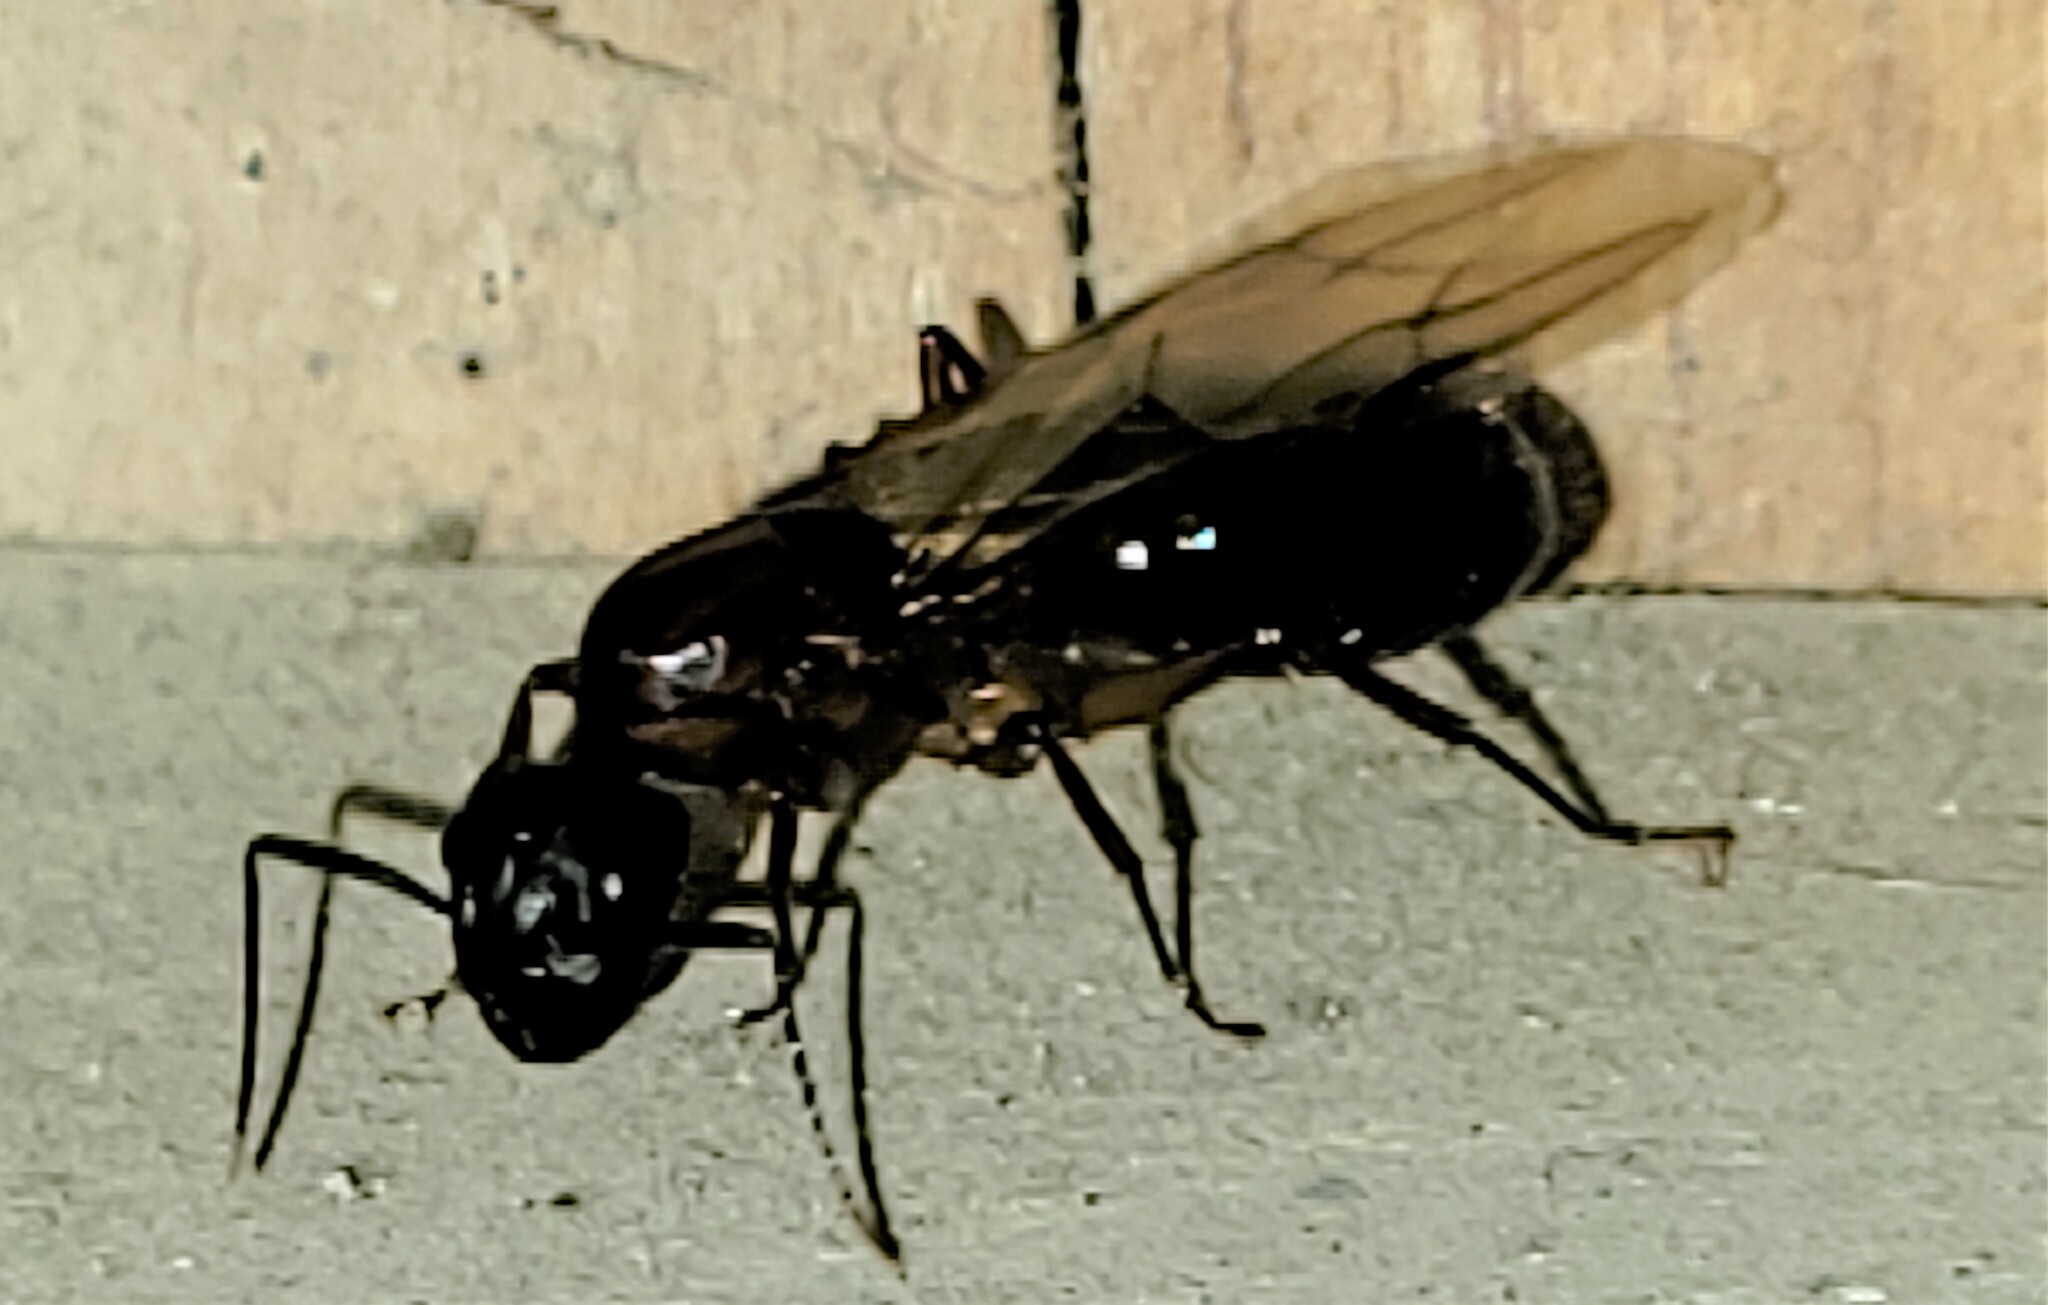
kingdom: Animalia
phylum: Arthropoda
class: Insecta
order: Hymenoptera
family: Formicidae
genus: Camponotus
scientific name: Camponotus atriceps
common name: Florida carpenter ant
